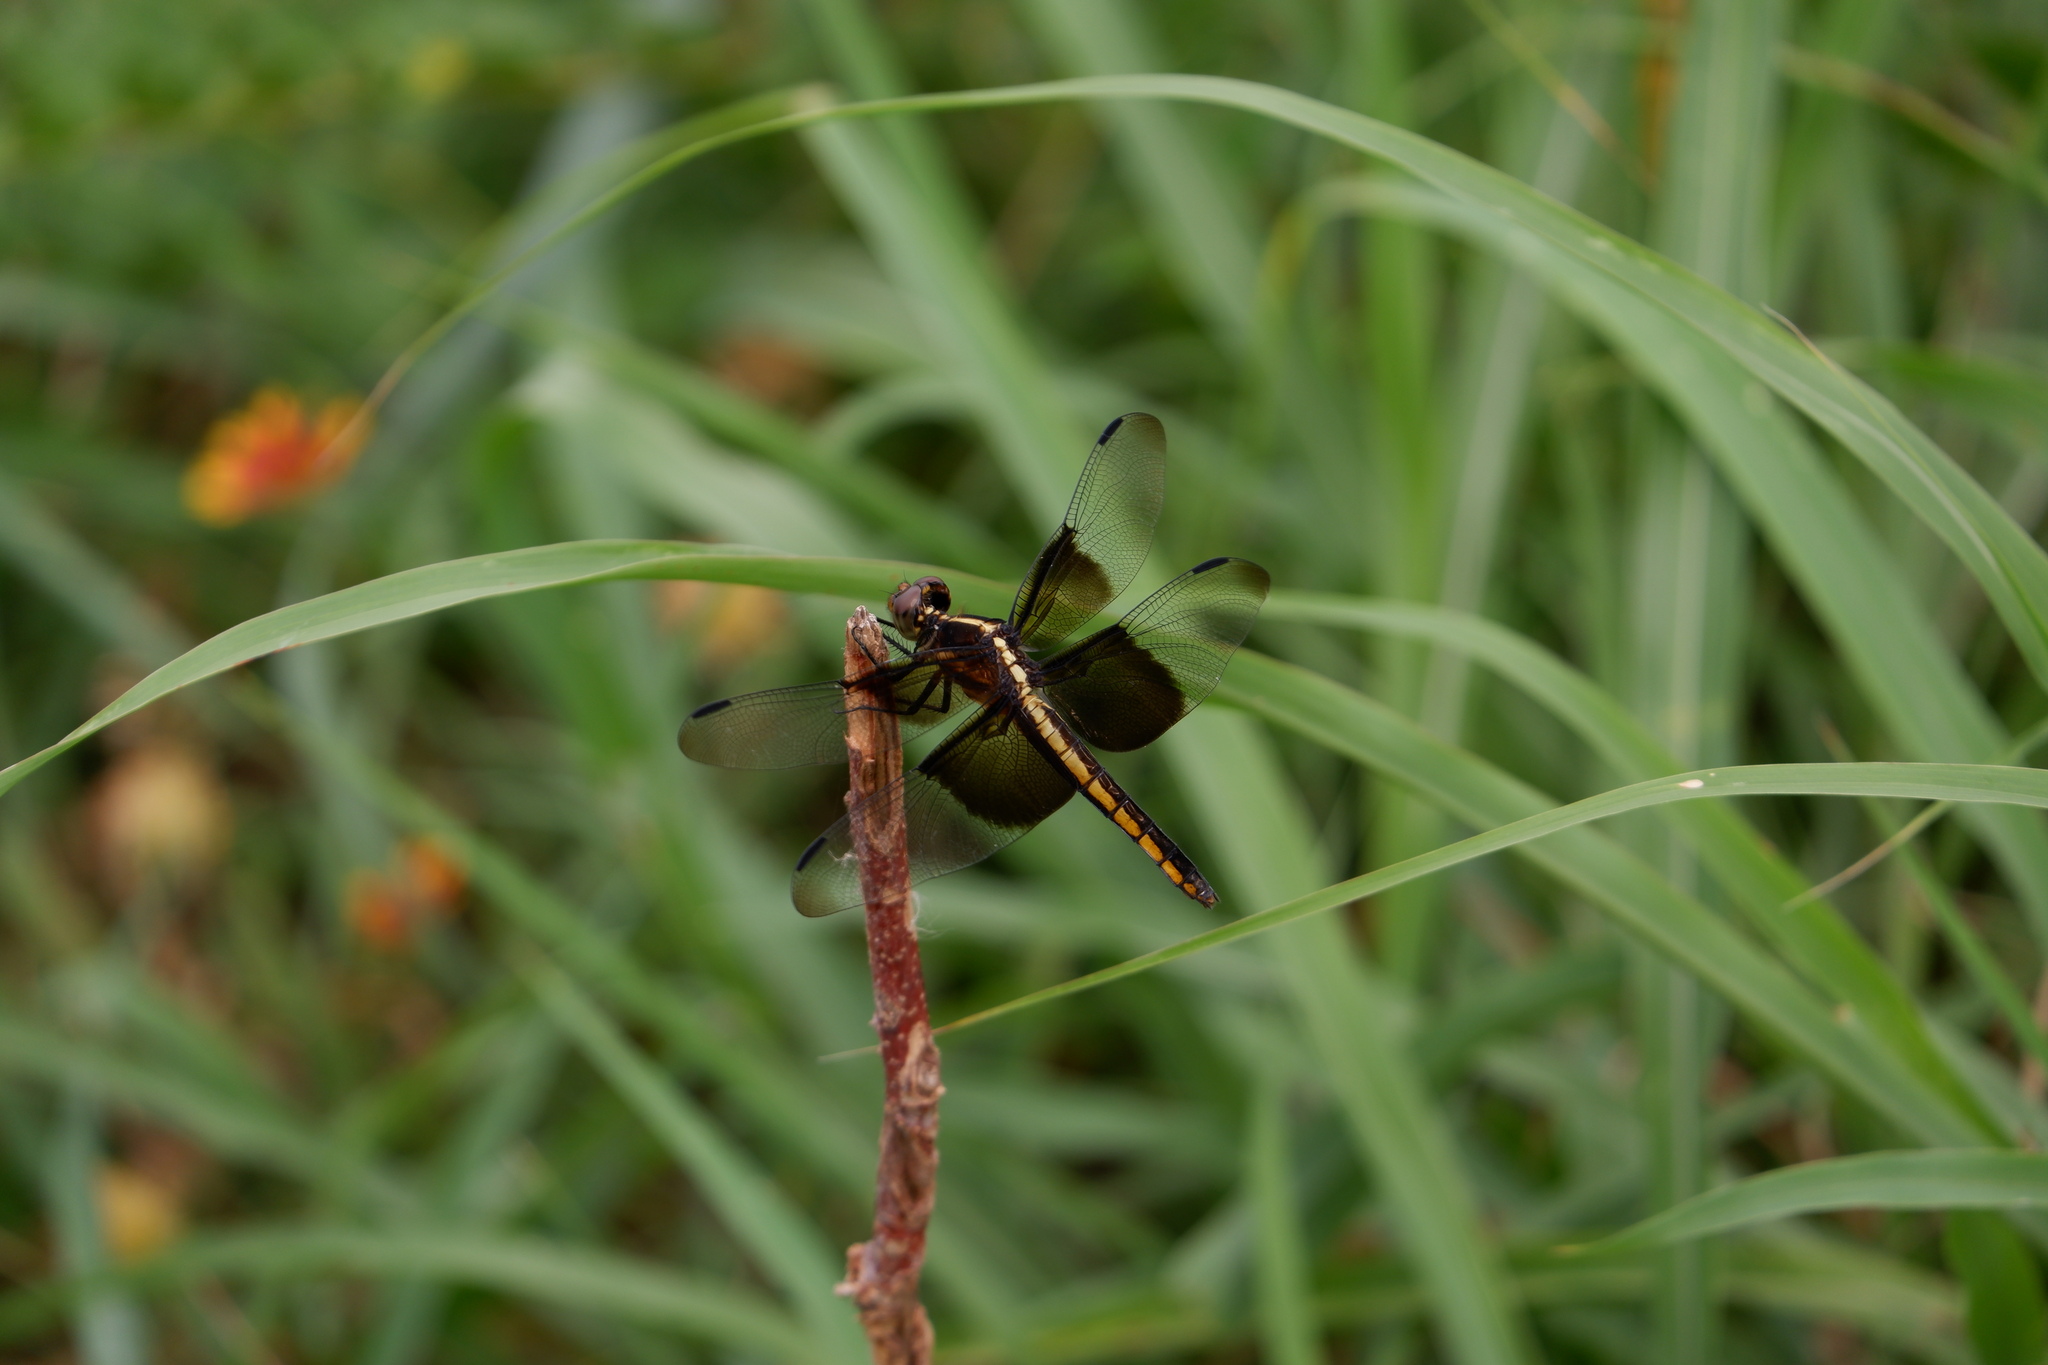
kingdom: Animalia
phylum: Arthropoda
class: Insecta
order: Odonata
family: Libellulidae
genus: Libellula
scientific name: Libellula luctuosa
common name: Widow skimmer
